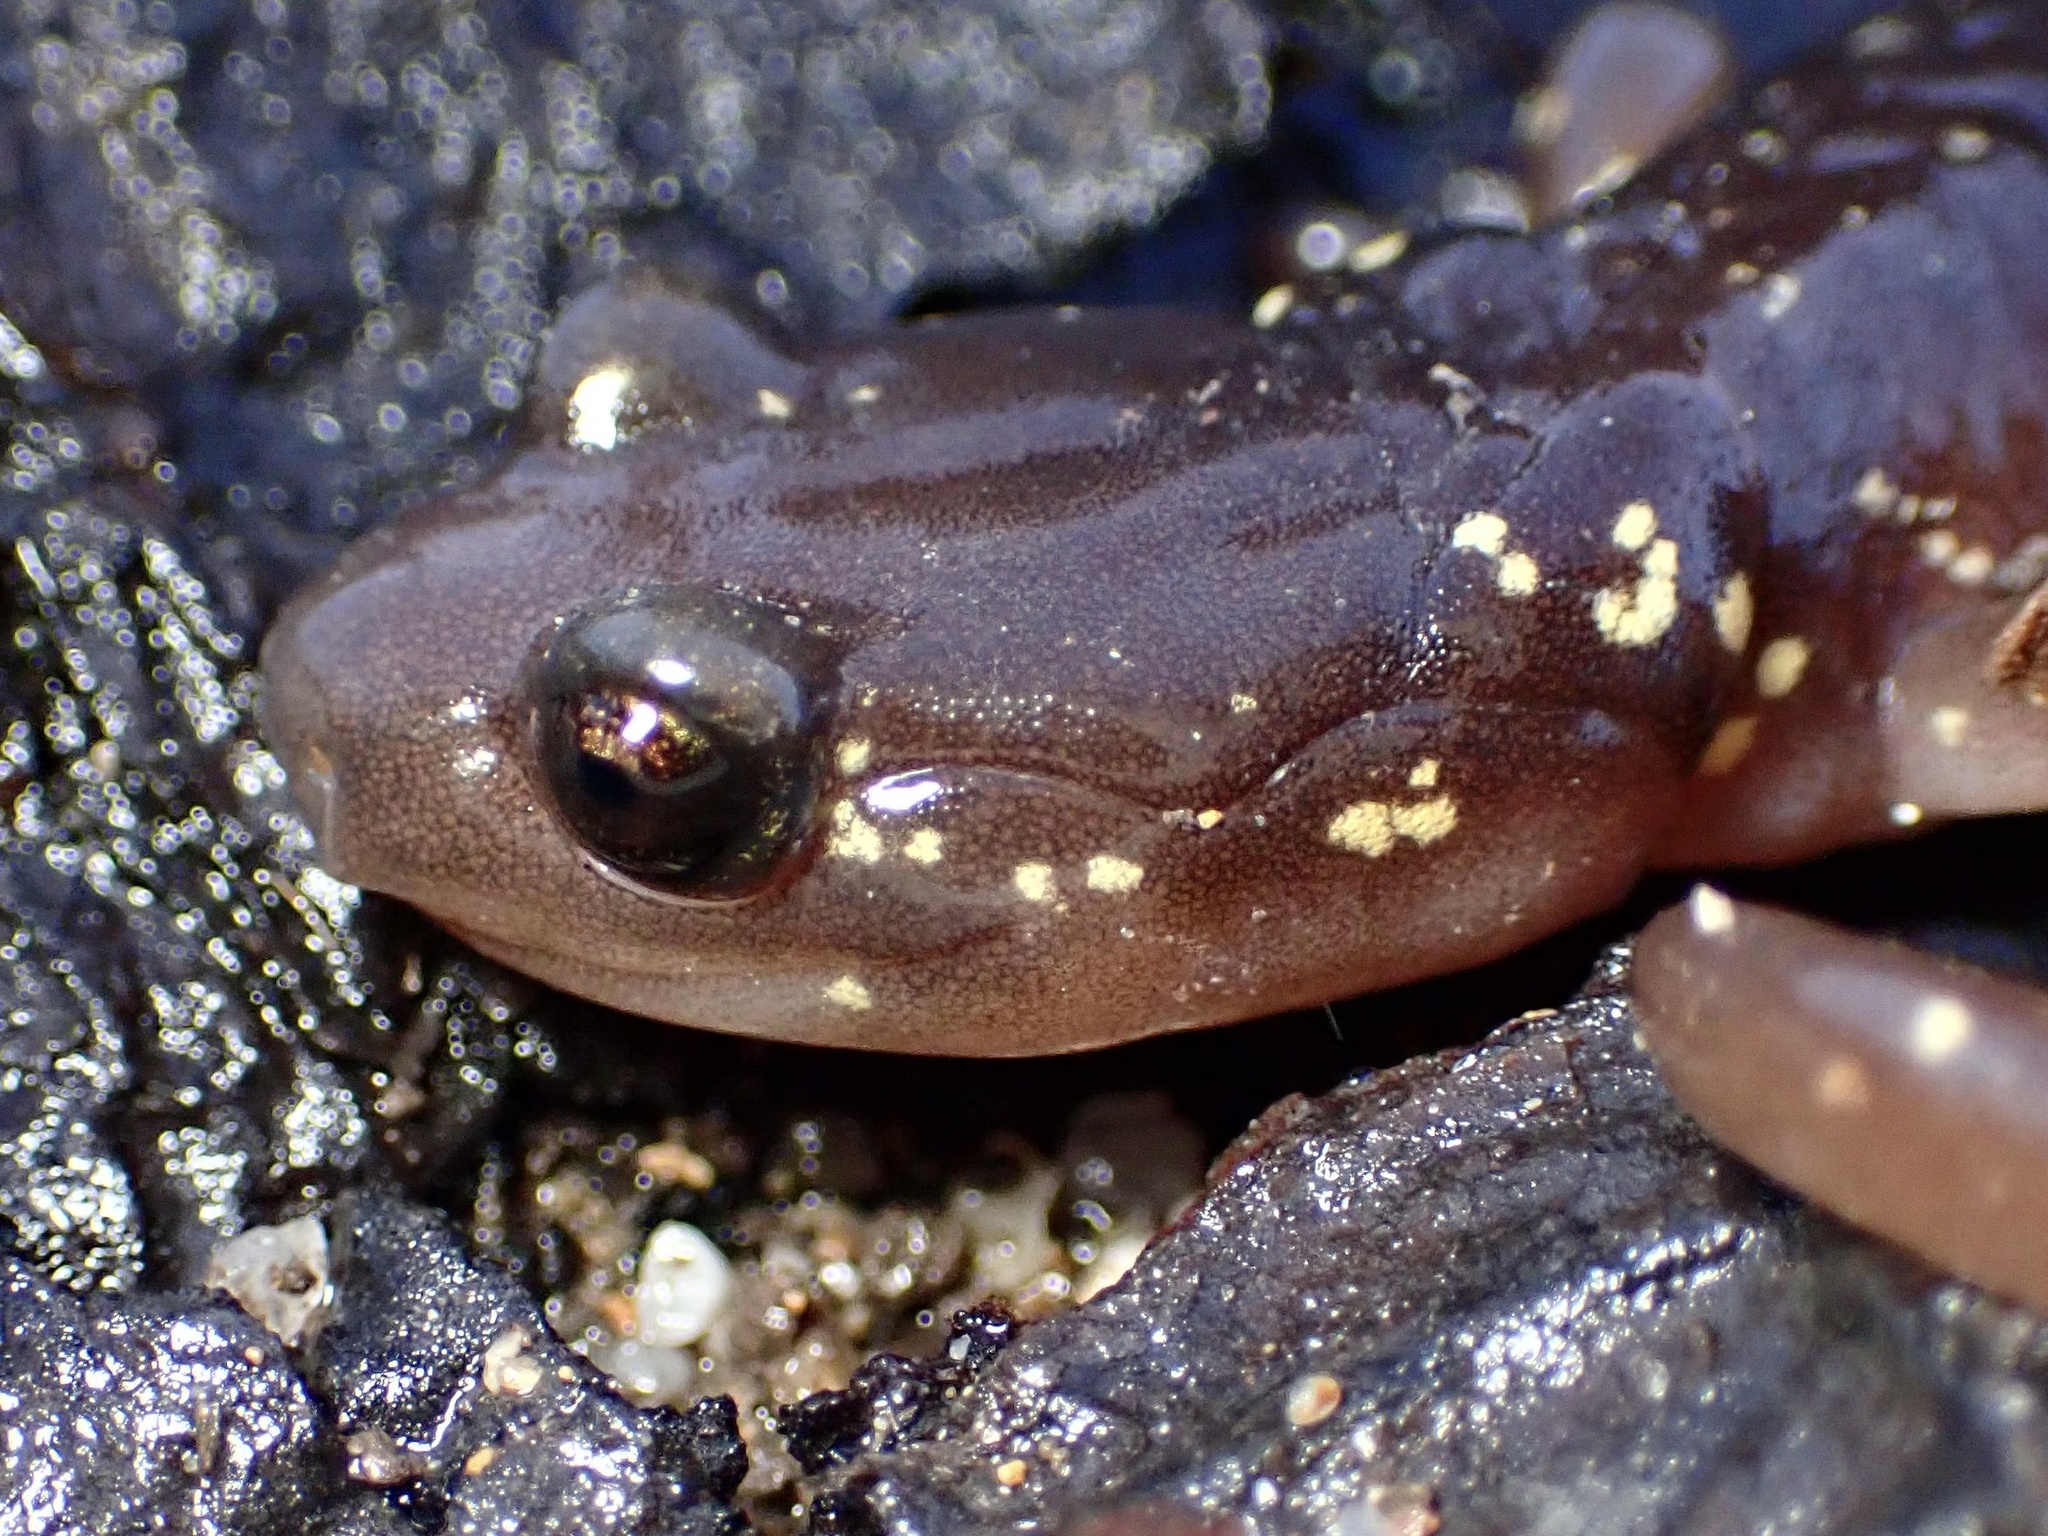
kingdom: Animalia
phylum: Chordata
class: Amphibia
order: Caudata
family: Plethodontidae
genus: Aneides
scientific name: Aneides lugubris
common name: Arboreal salamander
